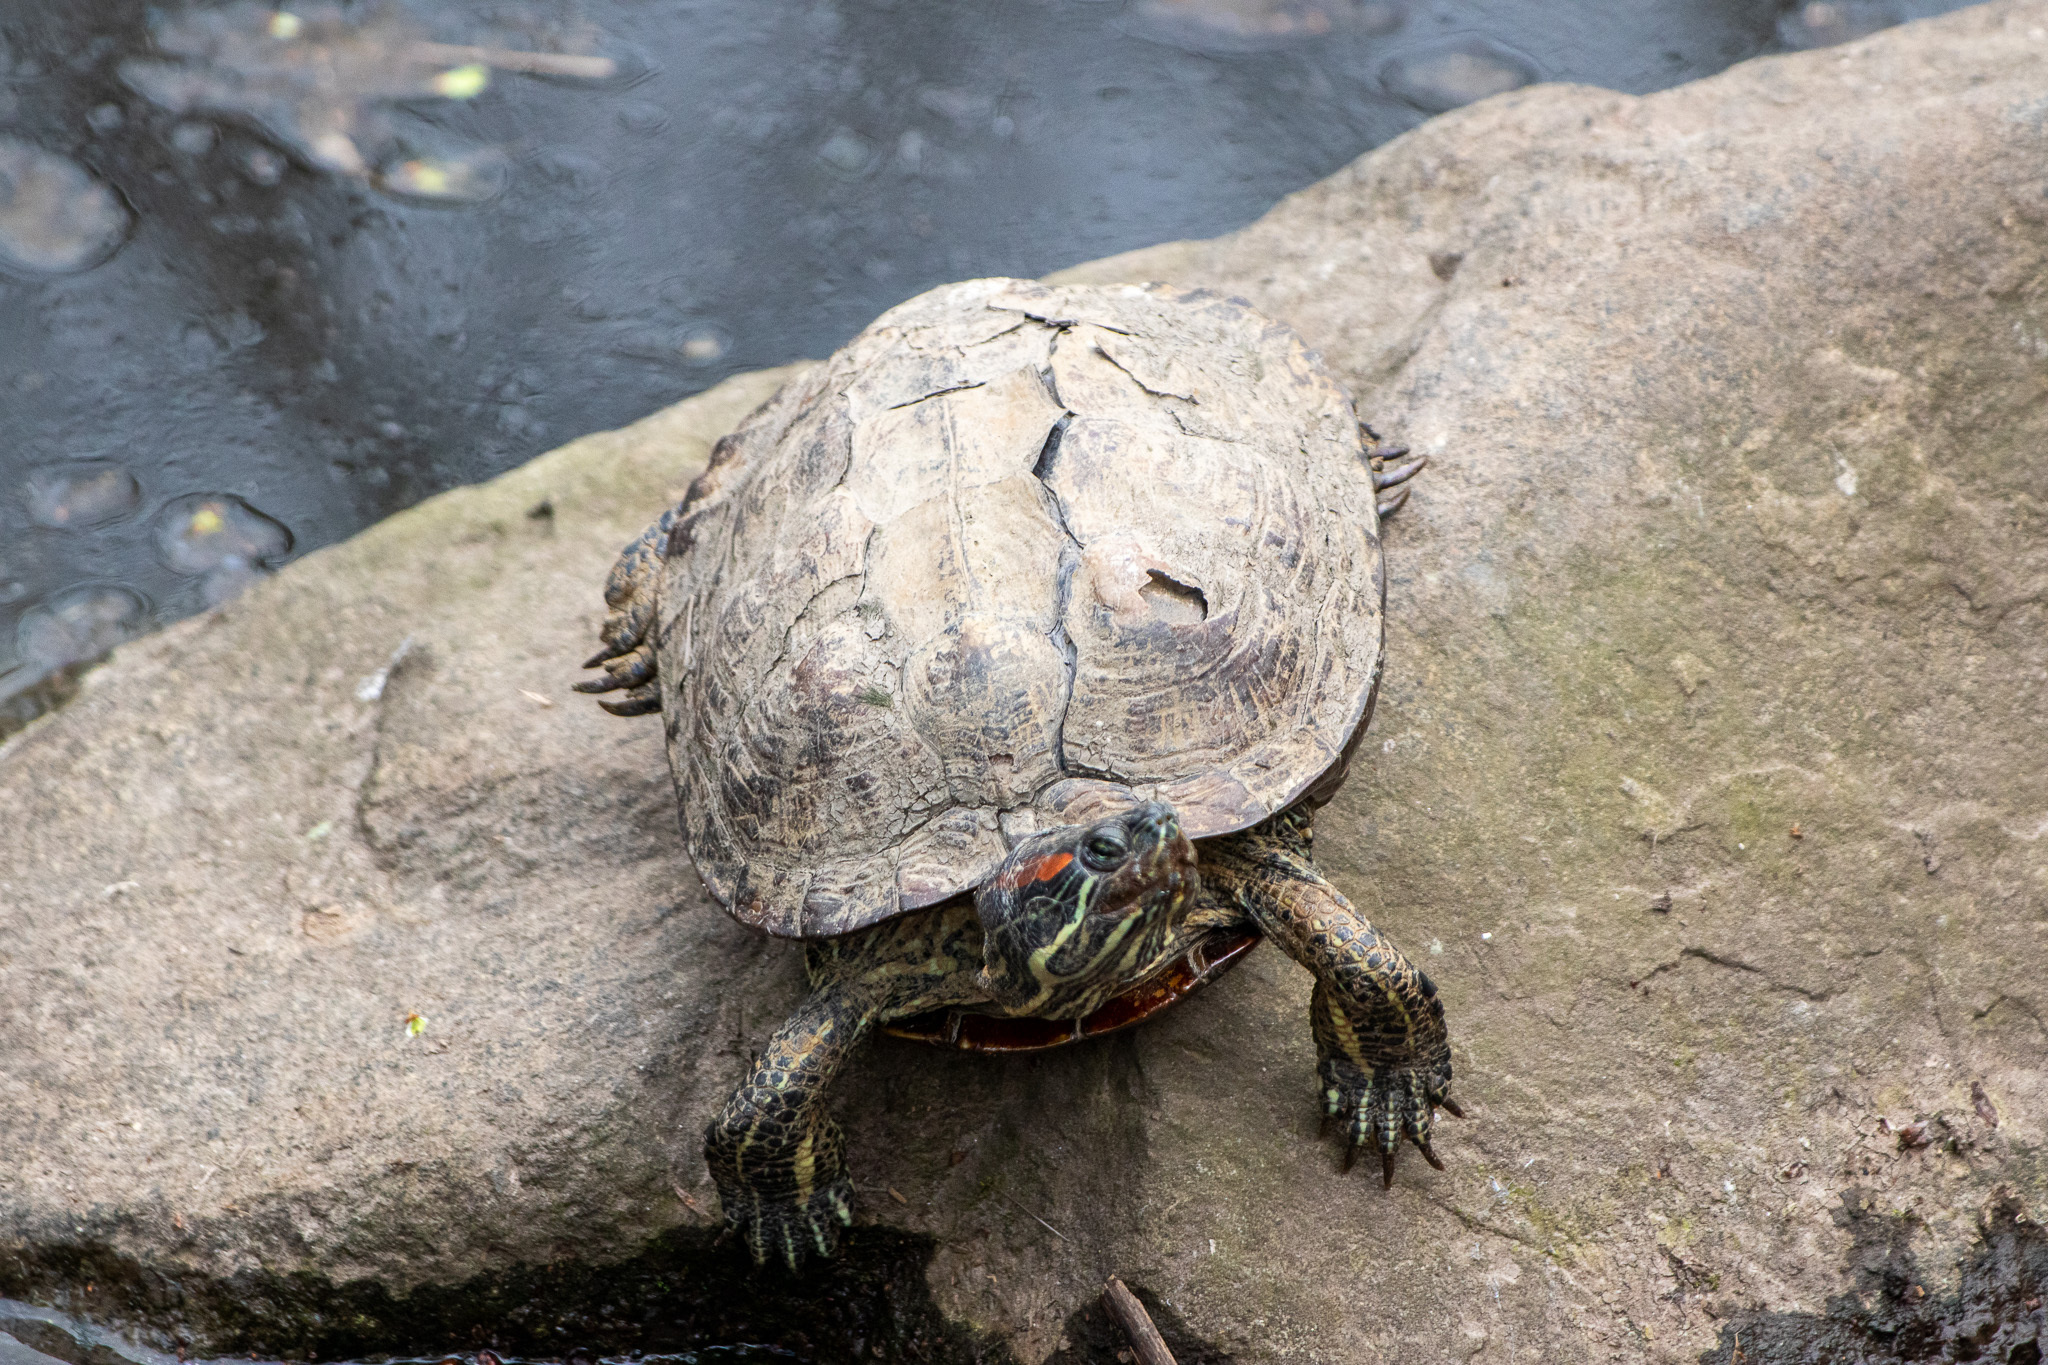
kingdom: Animalia
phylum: Chordata
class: Testudines
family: Emydidae
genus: Trachemys
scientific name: Trachemys scripta
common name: Slider
